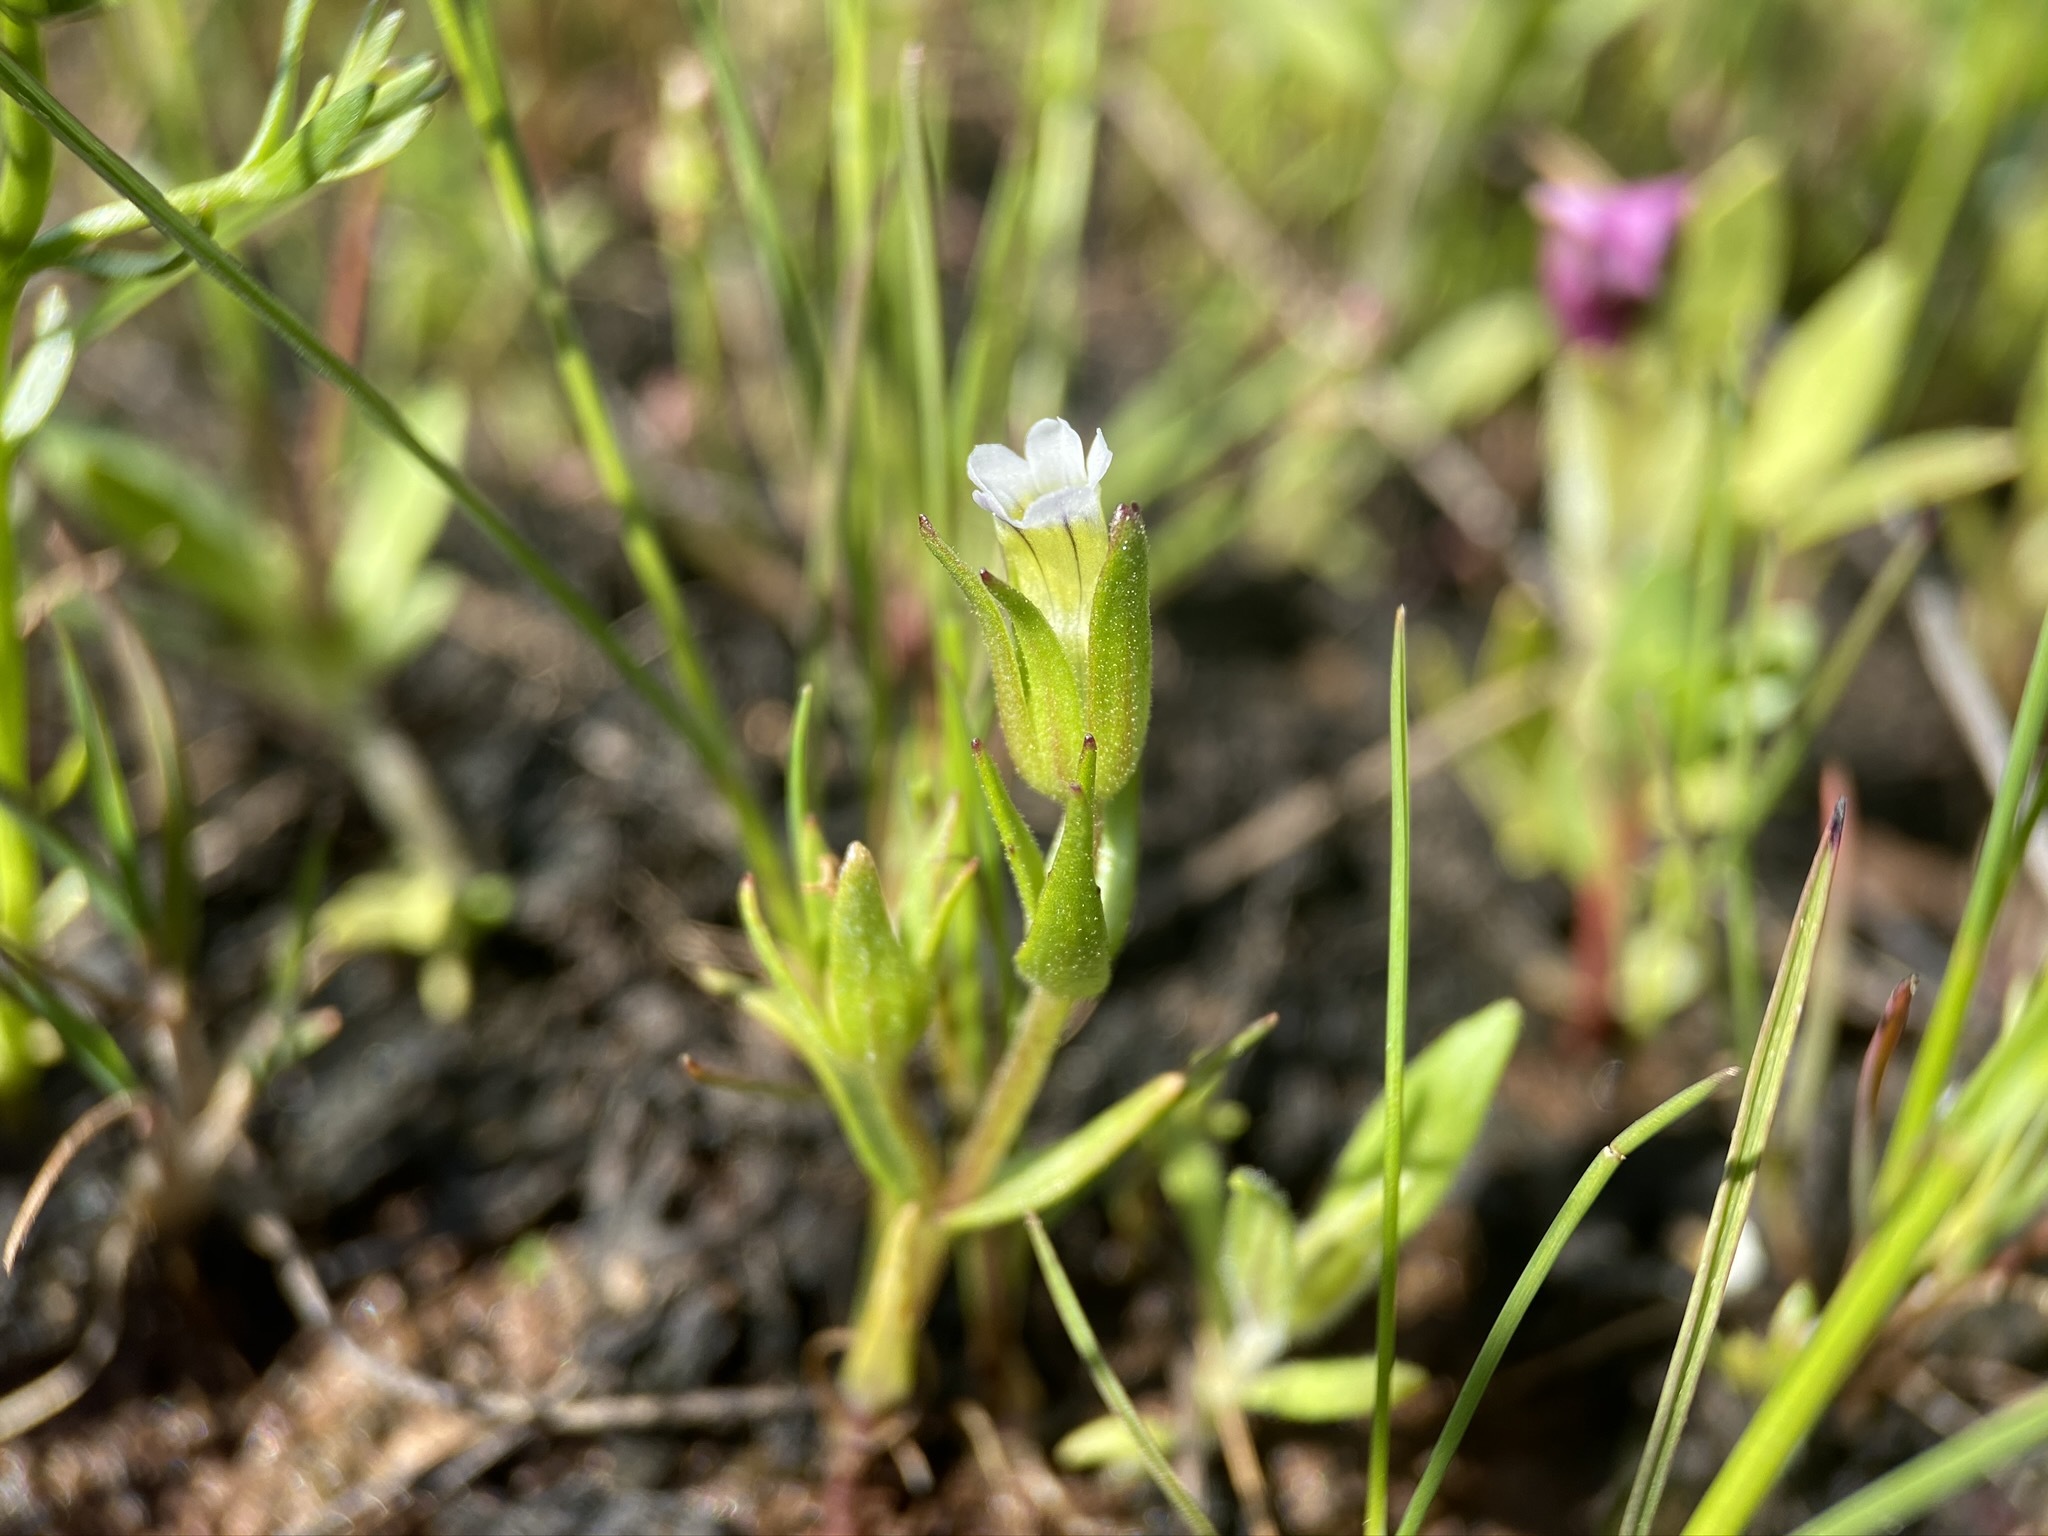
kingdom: Plantae
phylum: Tracheophyta
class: Magnoliopsida
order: Lamiales
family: Plantaginaceae
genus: Gratiola
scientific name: Gratiola ebracteata
